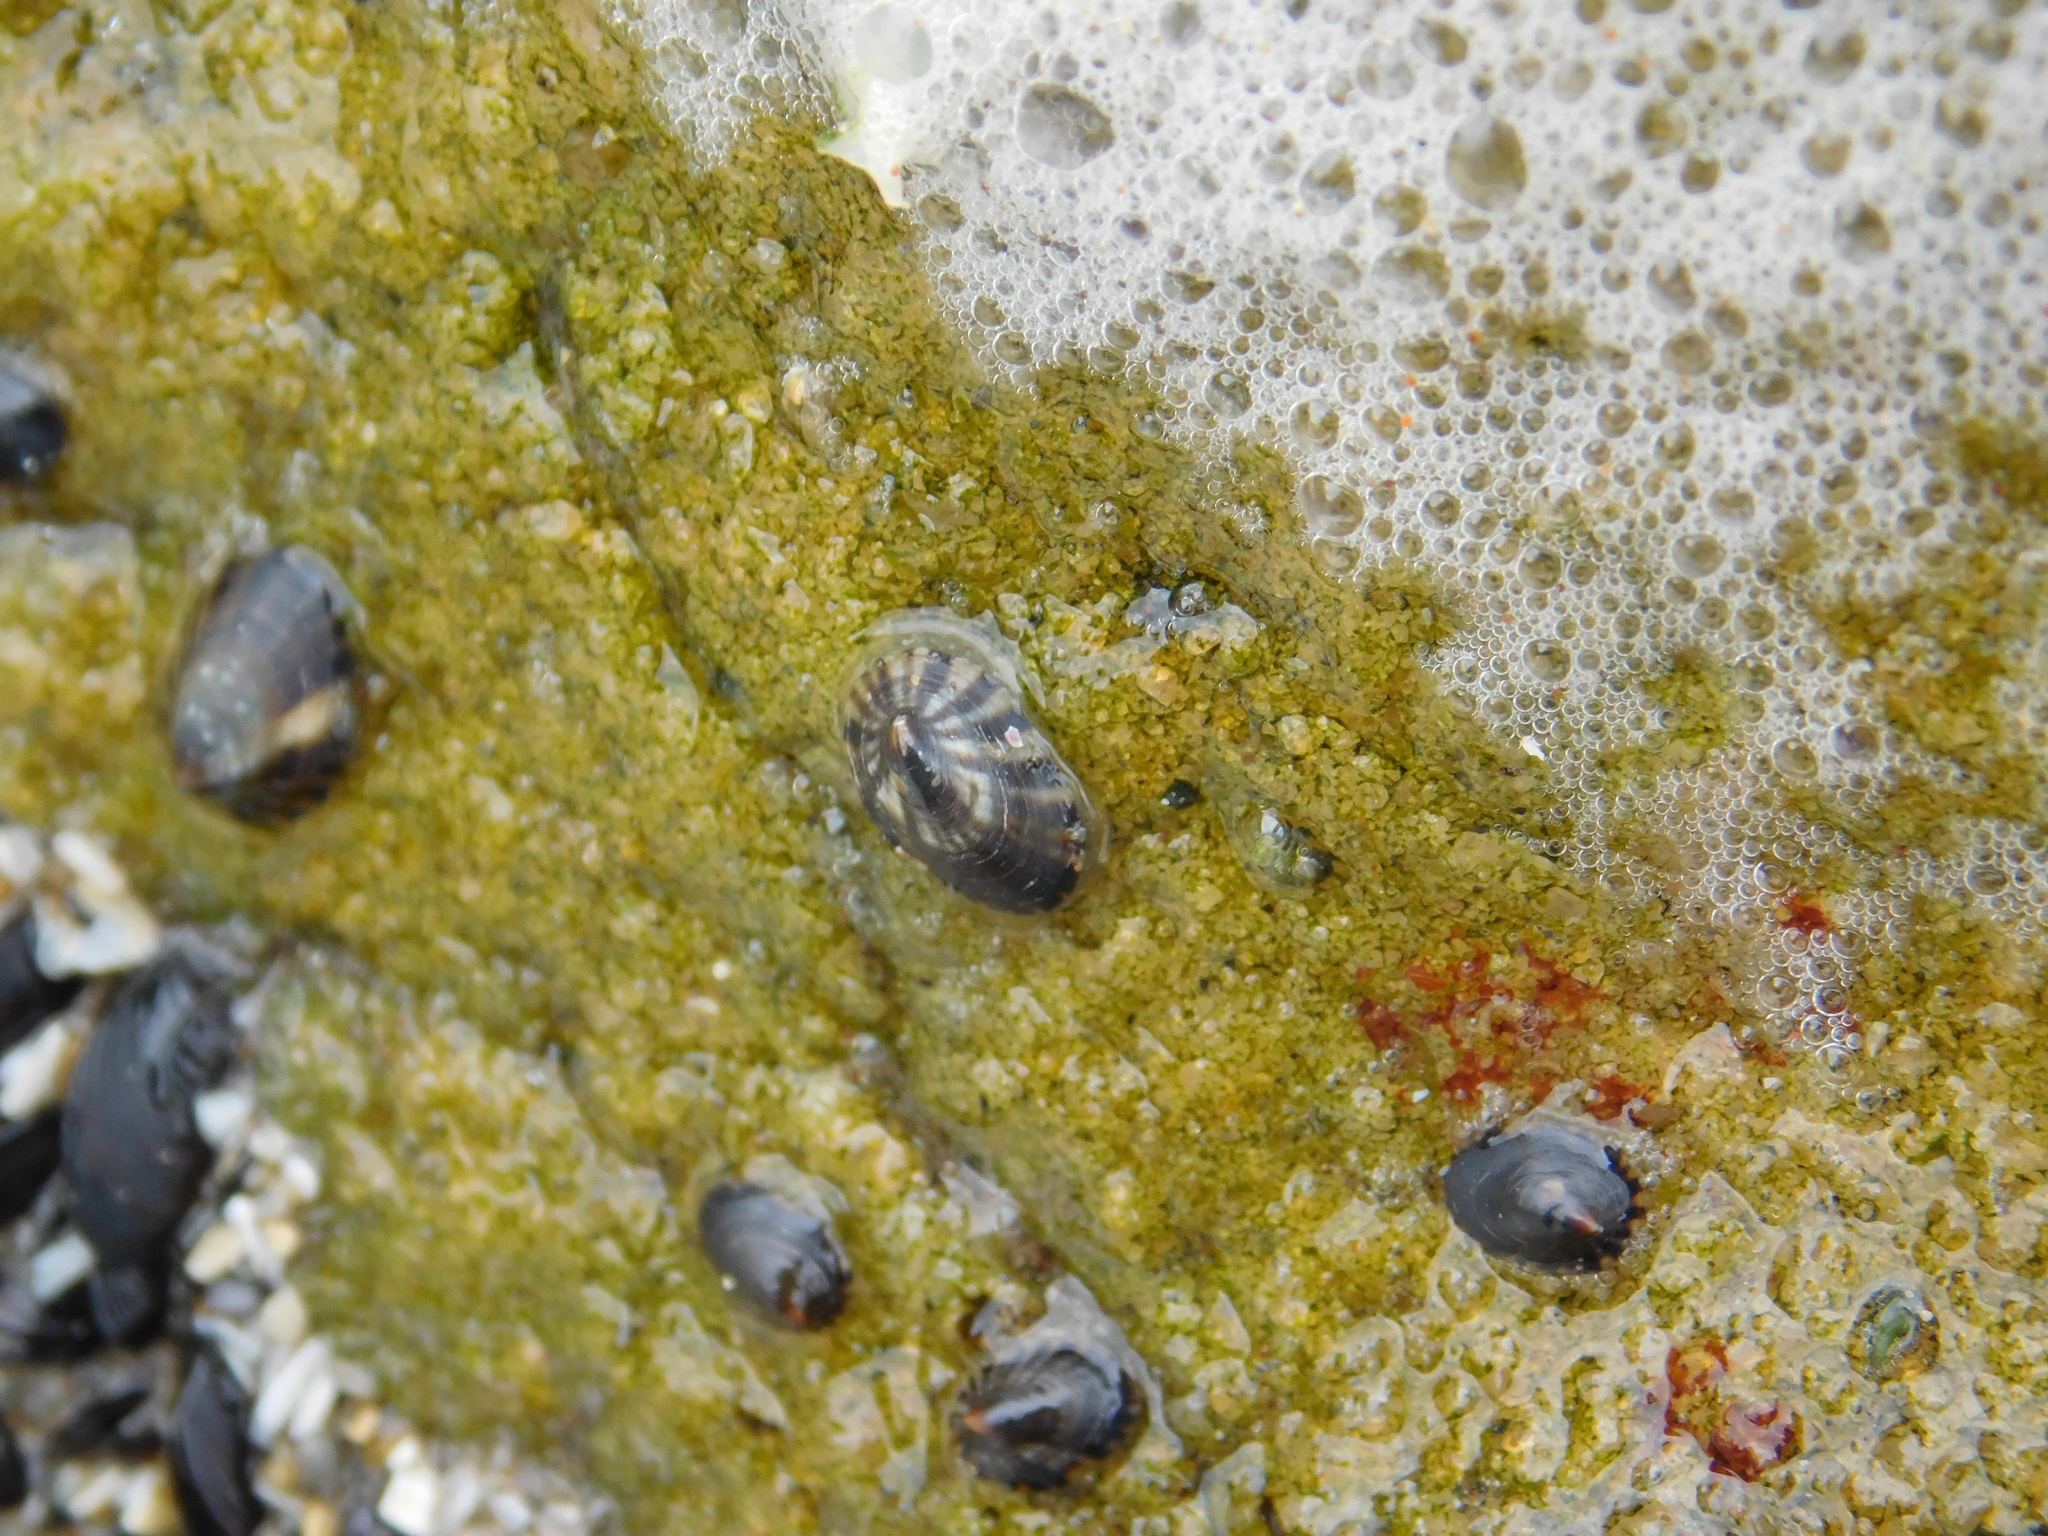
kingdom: Animalia
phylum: Mollusca
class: Gastropoda
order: Siphonariida
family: Siphonariidae
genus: Siphonaria
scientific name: Siphonaria lessonii
